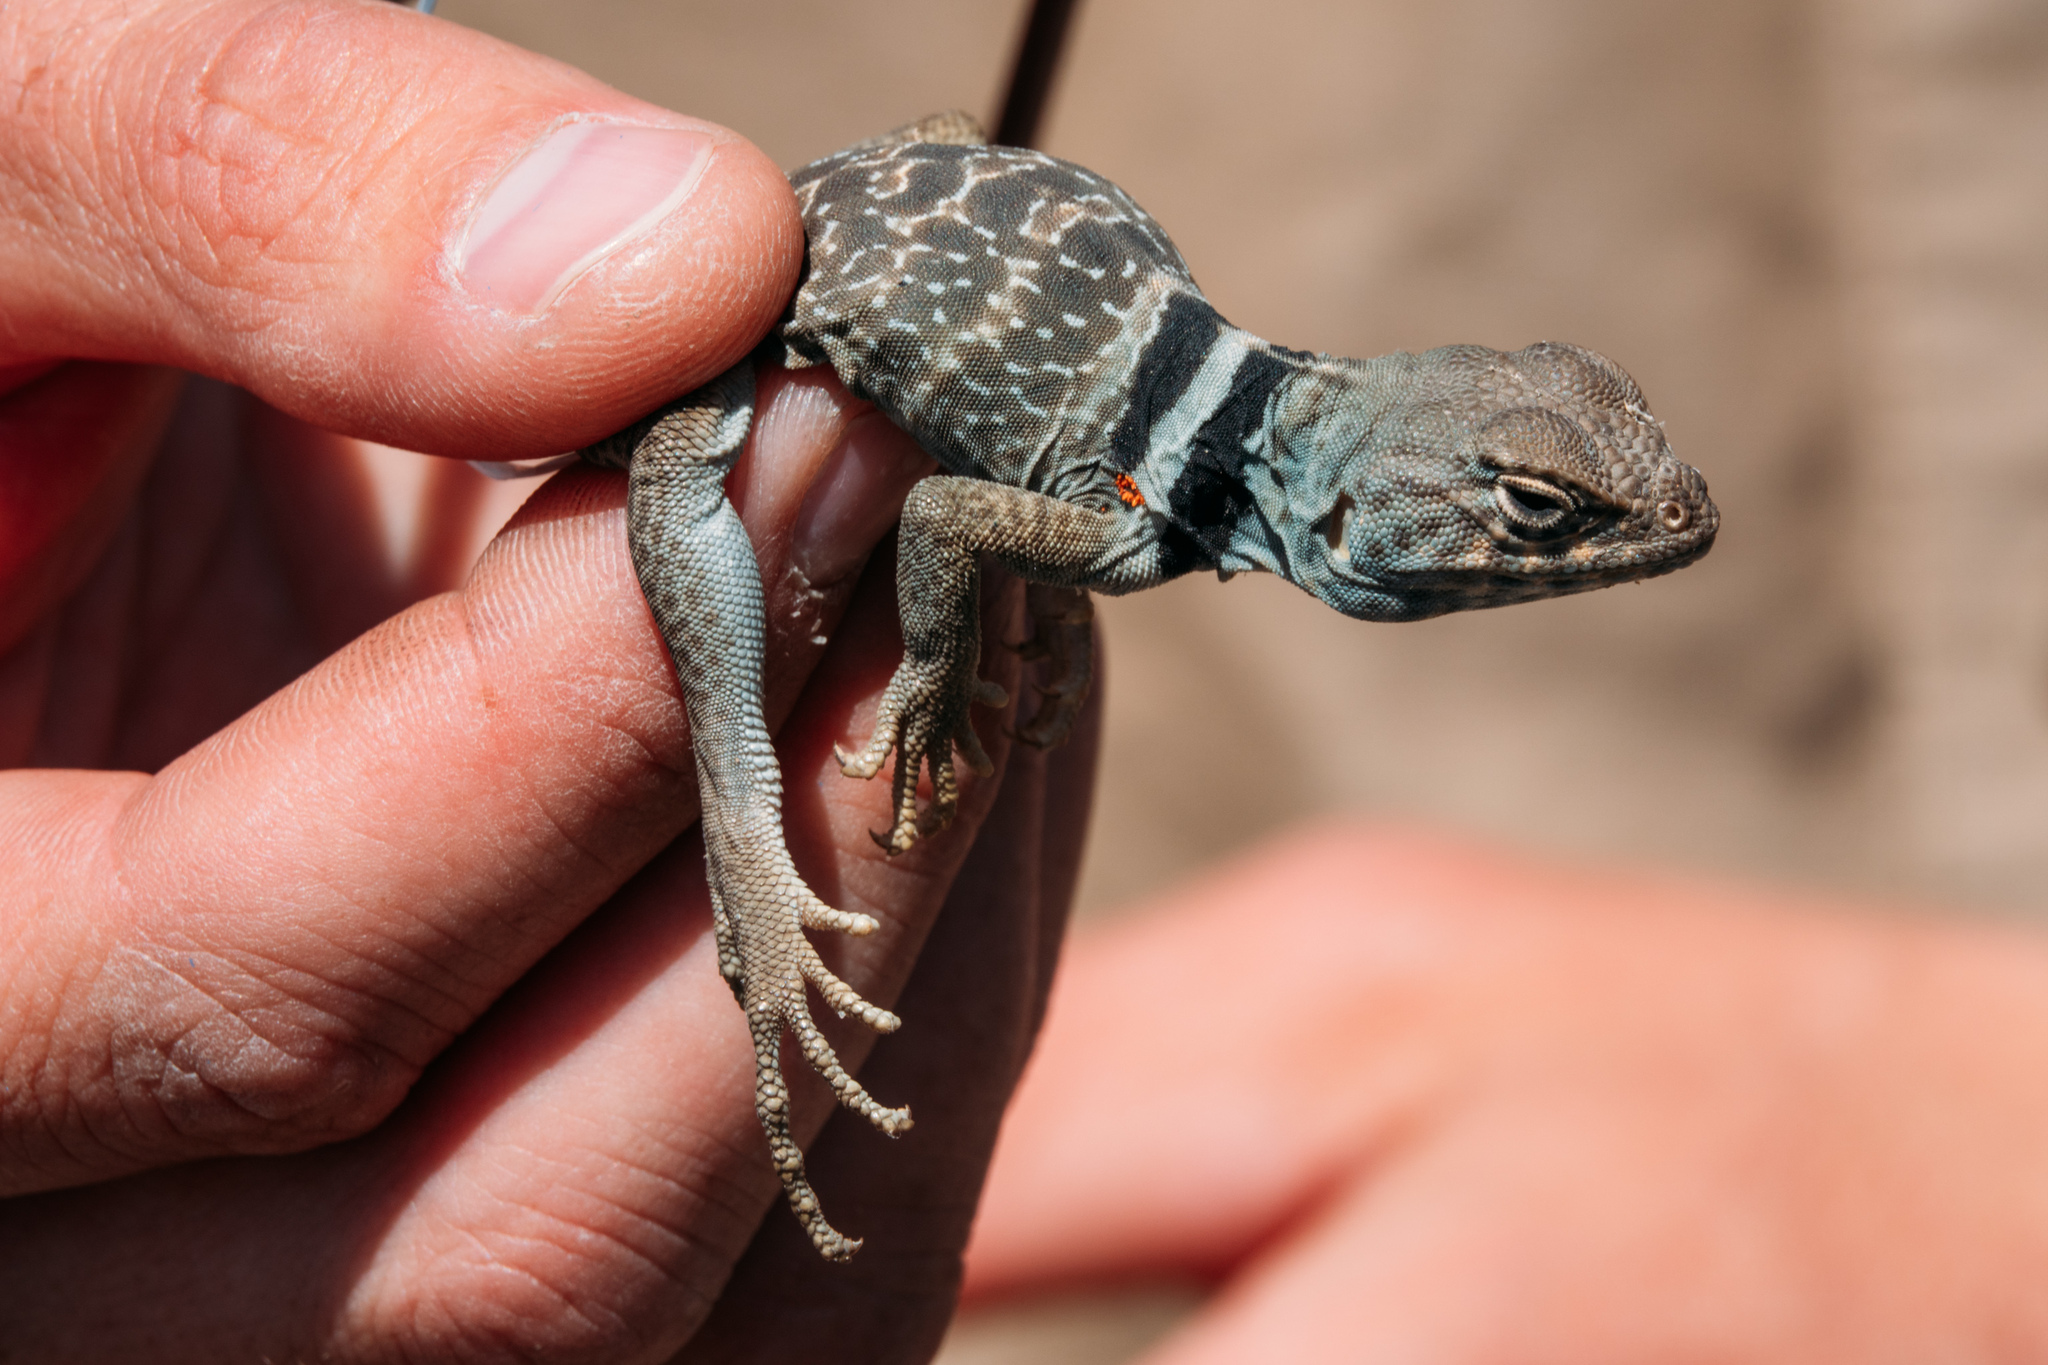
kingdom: Animalia
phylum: Chordata
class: Squamata
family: Crotaphytidae
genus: Crotaphytus
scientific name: Crotaphytus bicinctores
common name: Mojave black-collared lizard
